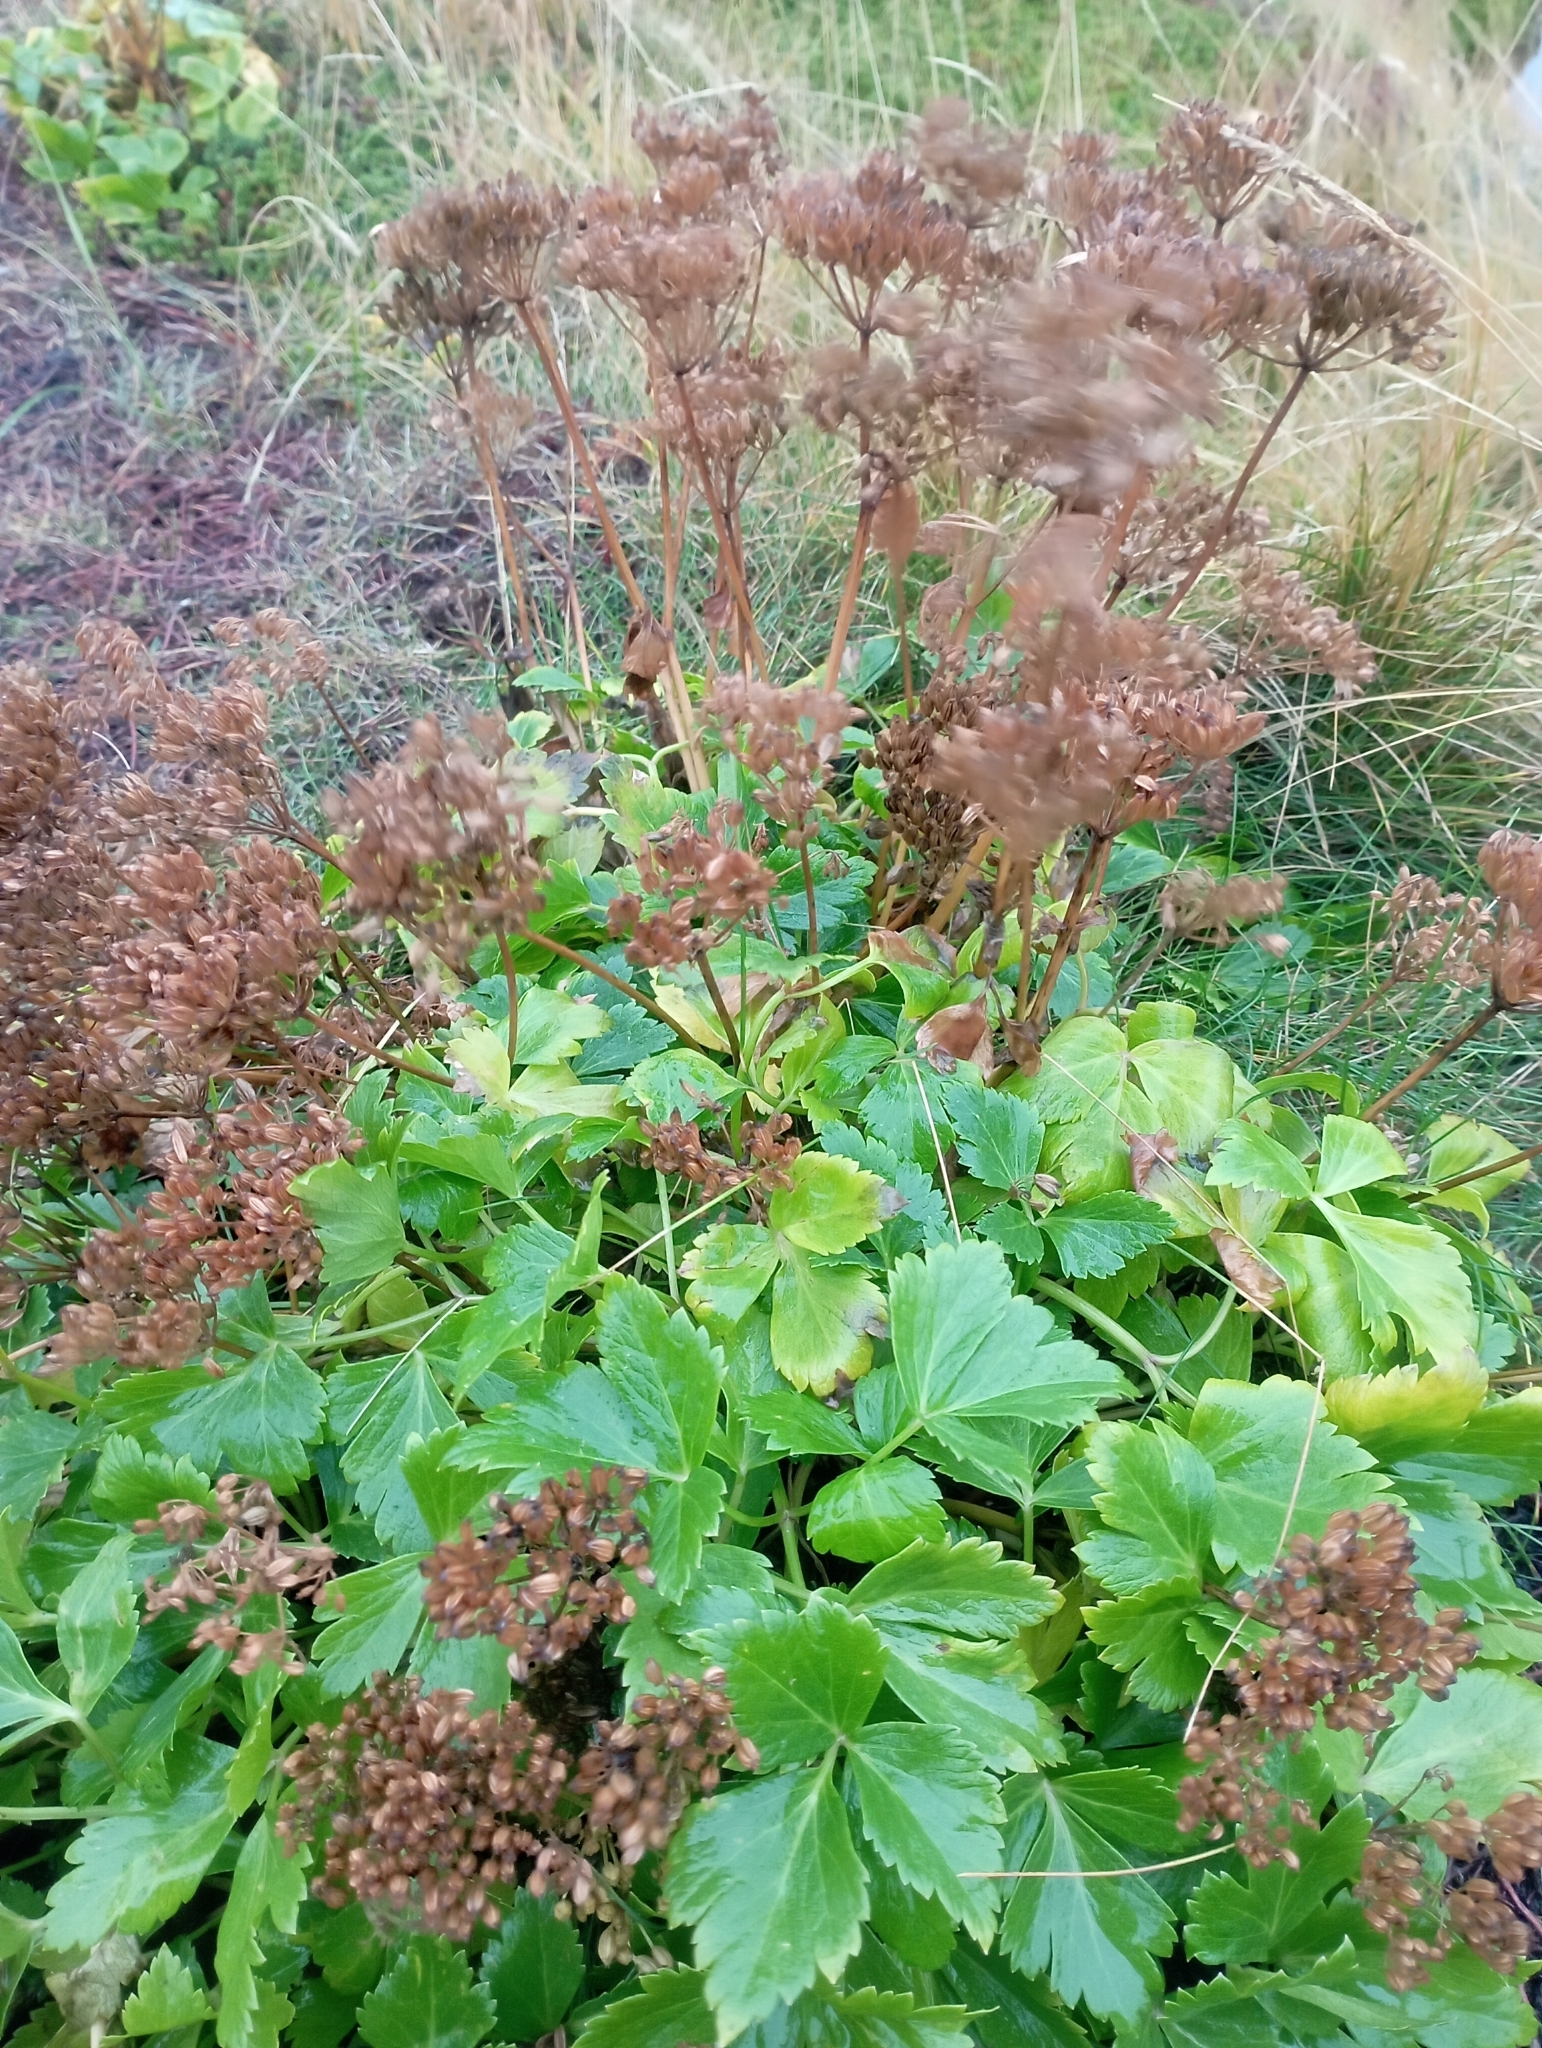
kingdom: Plantae
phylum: Tracheophyta
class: Magnoliopsida
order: Apiales
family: Apiaceae
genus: Ligusticum
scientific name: Ligusticum scothicum
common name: Beach lovage
